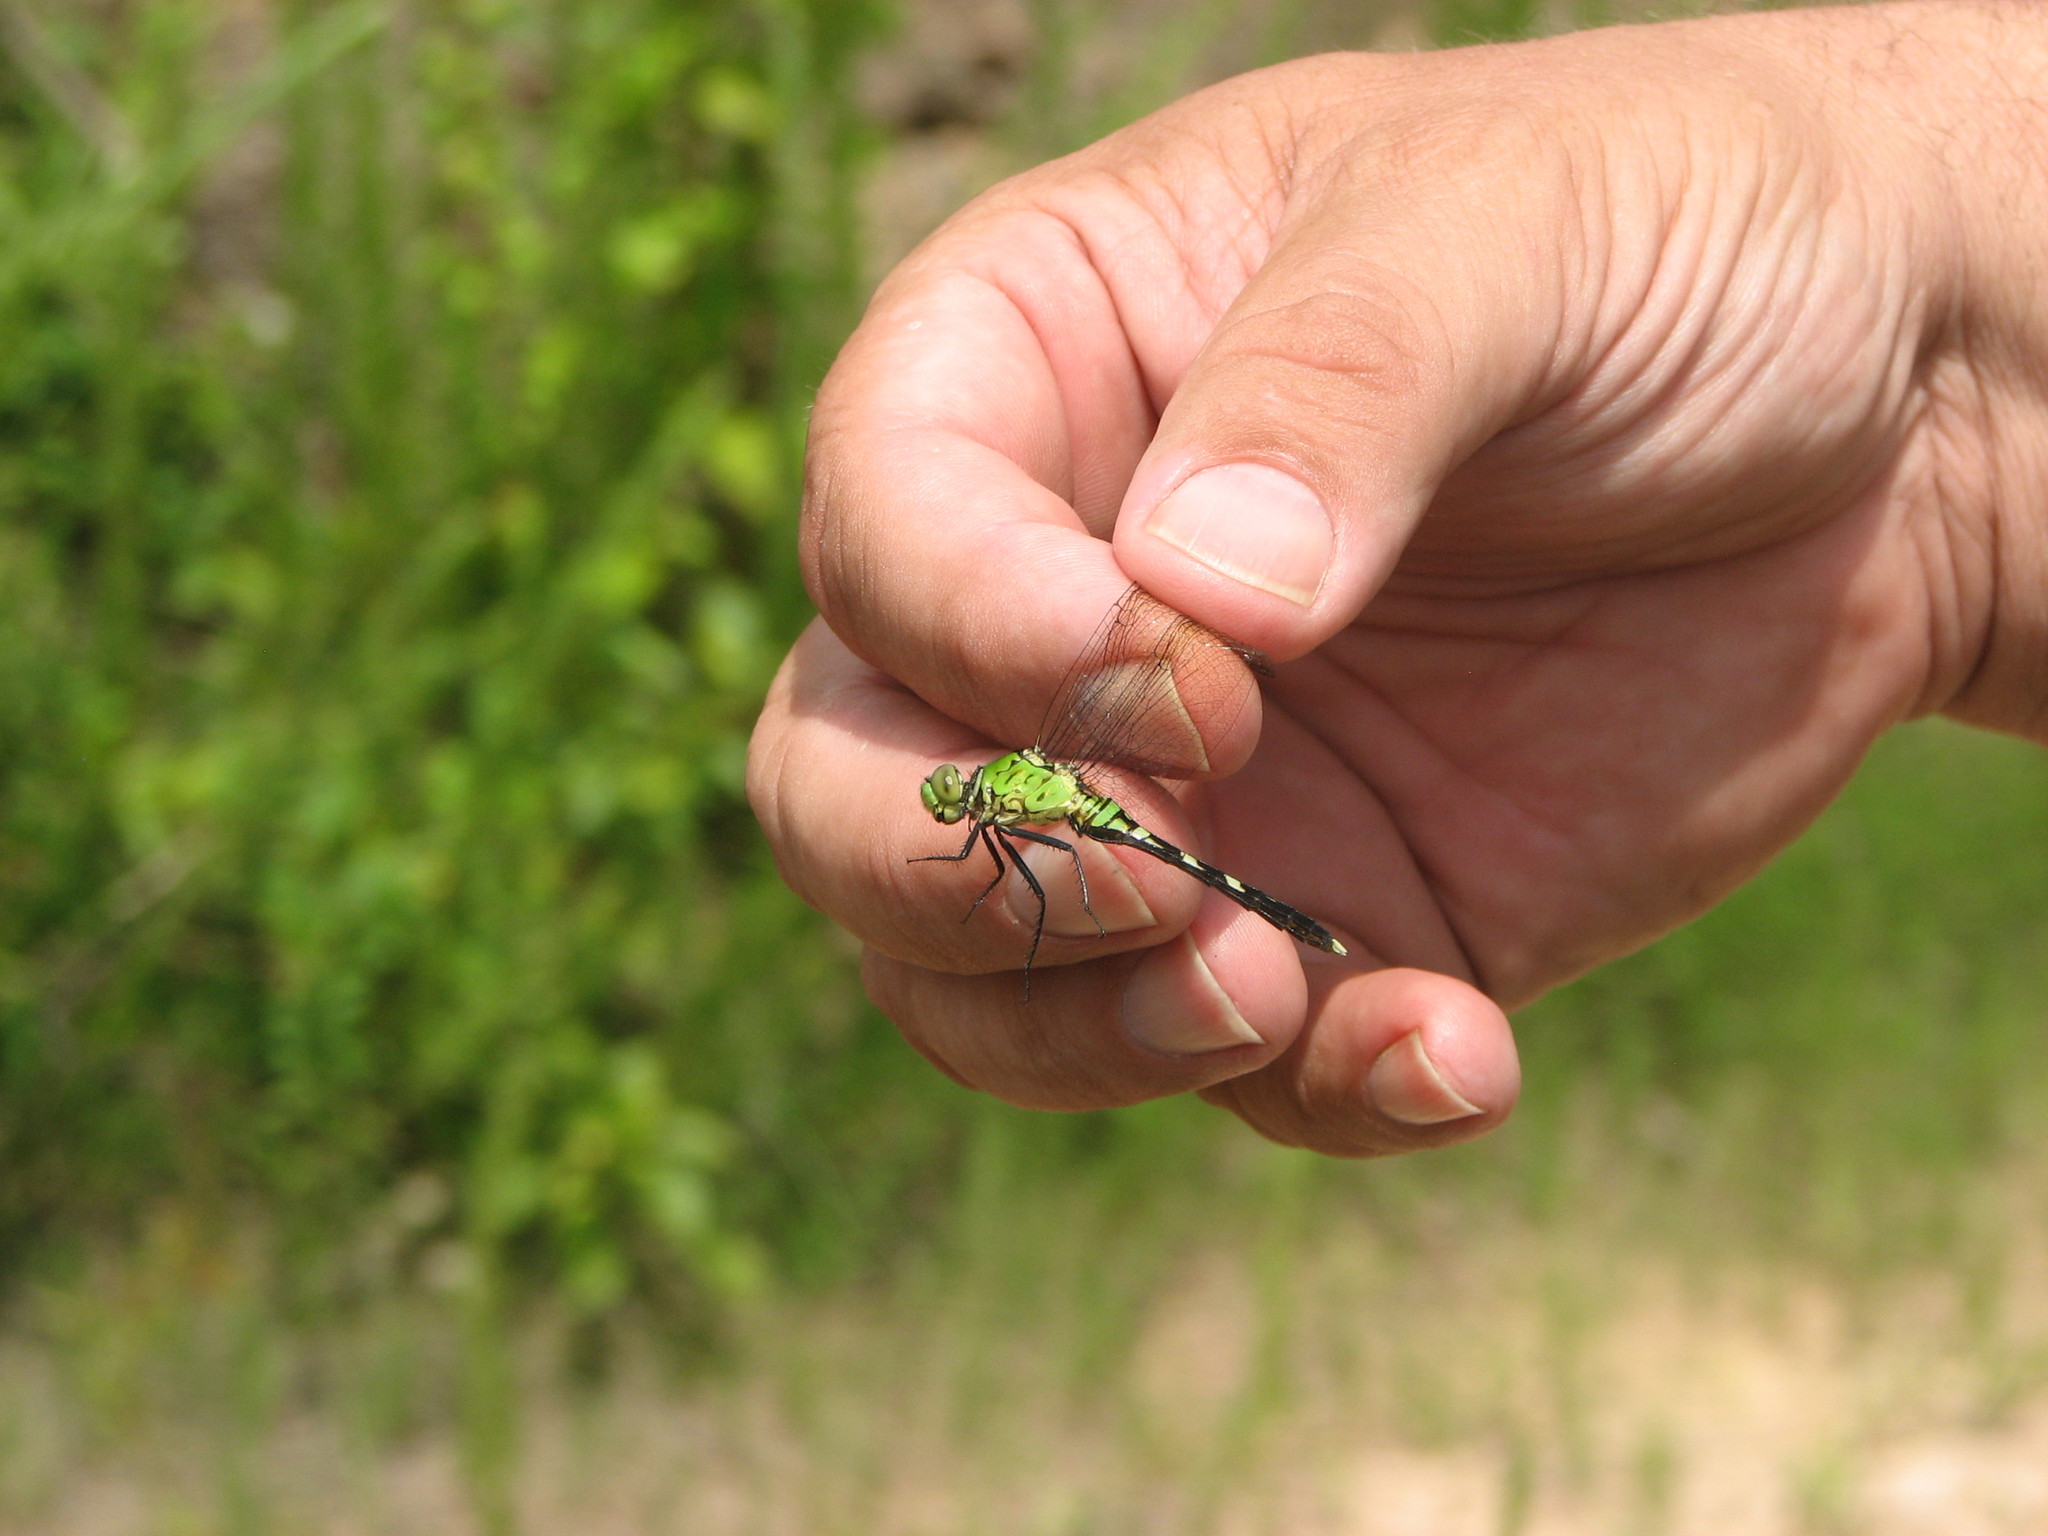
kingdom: Animalia
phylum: Arthropoda
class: Insecta
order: Odonata
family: Libellulidae
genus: Erythemis
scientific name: Erythemis simplicicollis
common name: Eastern pondhawk
